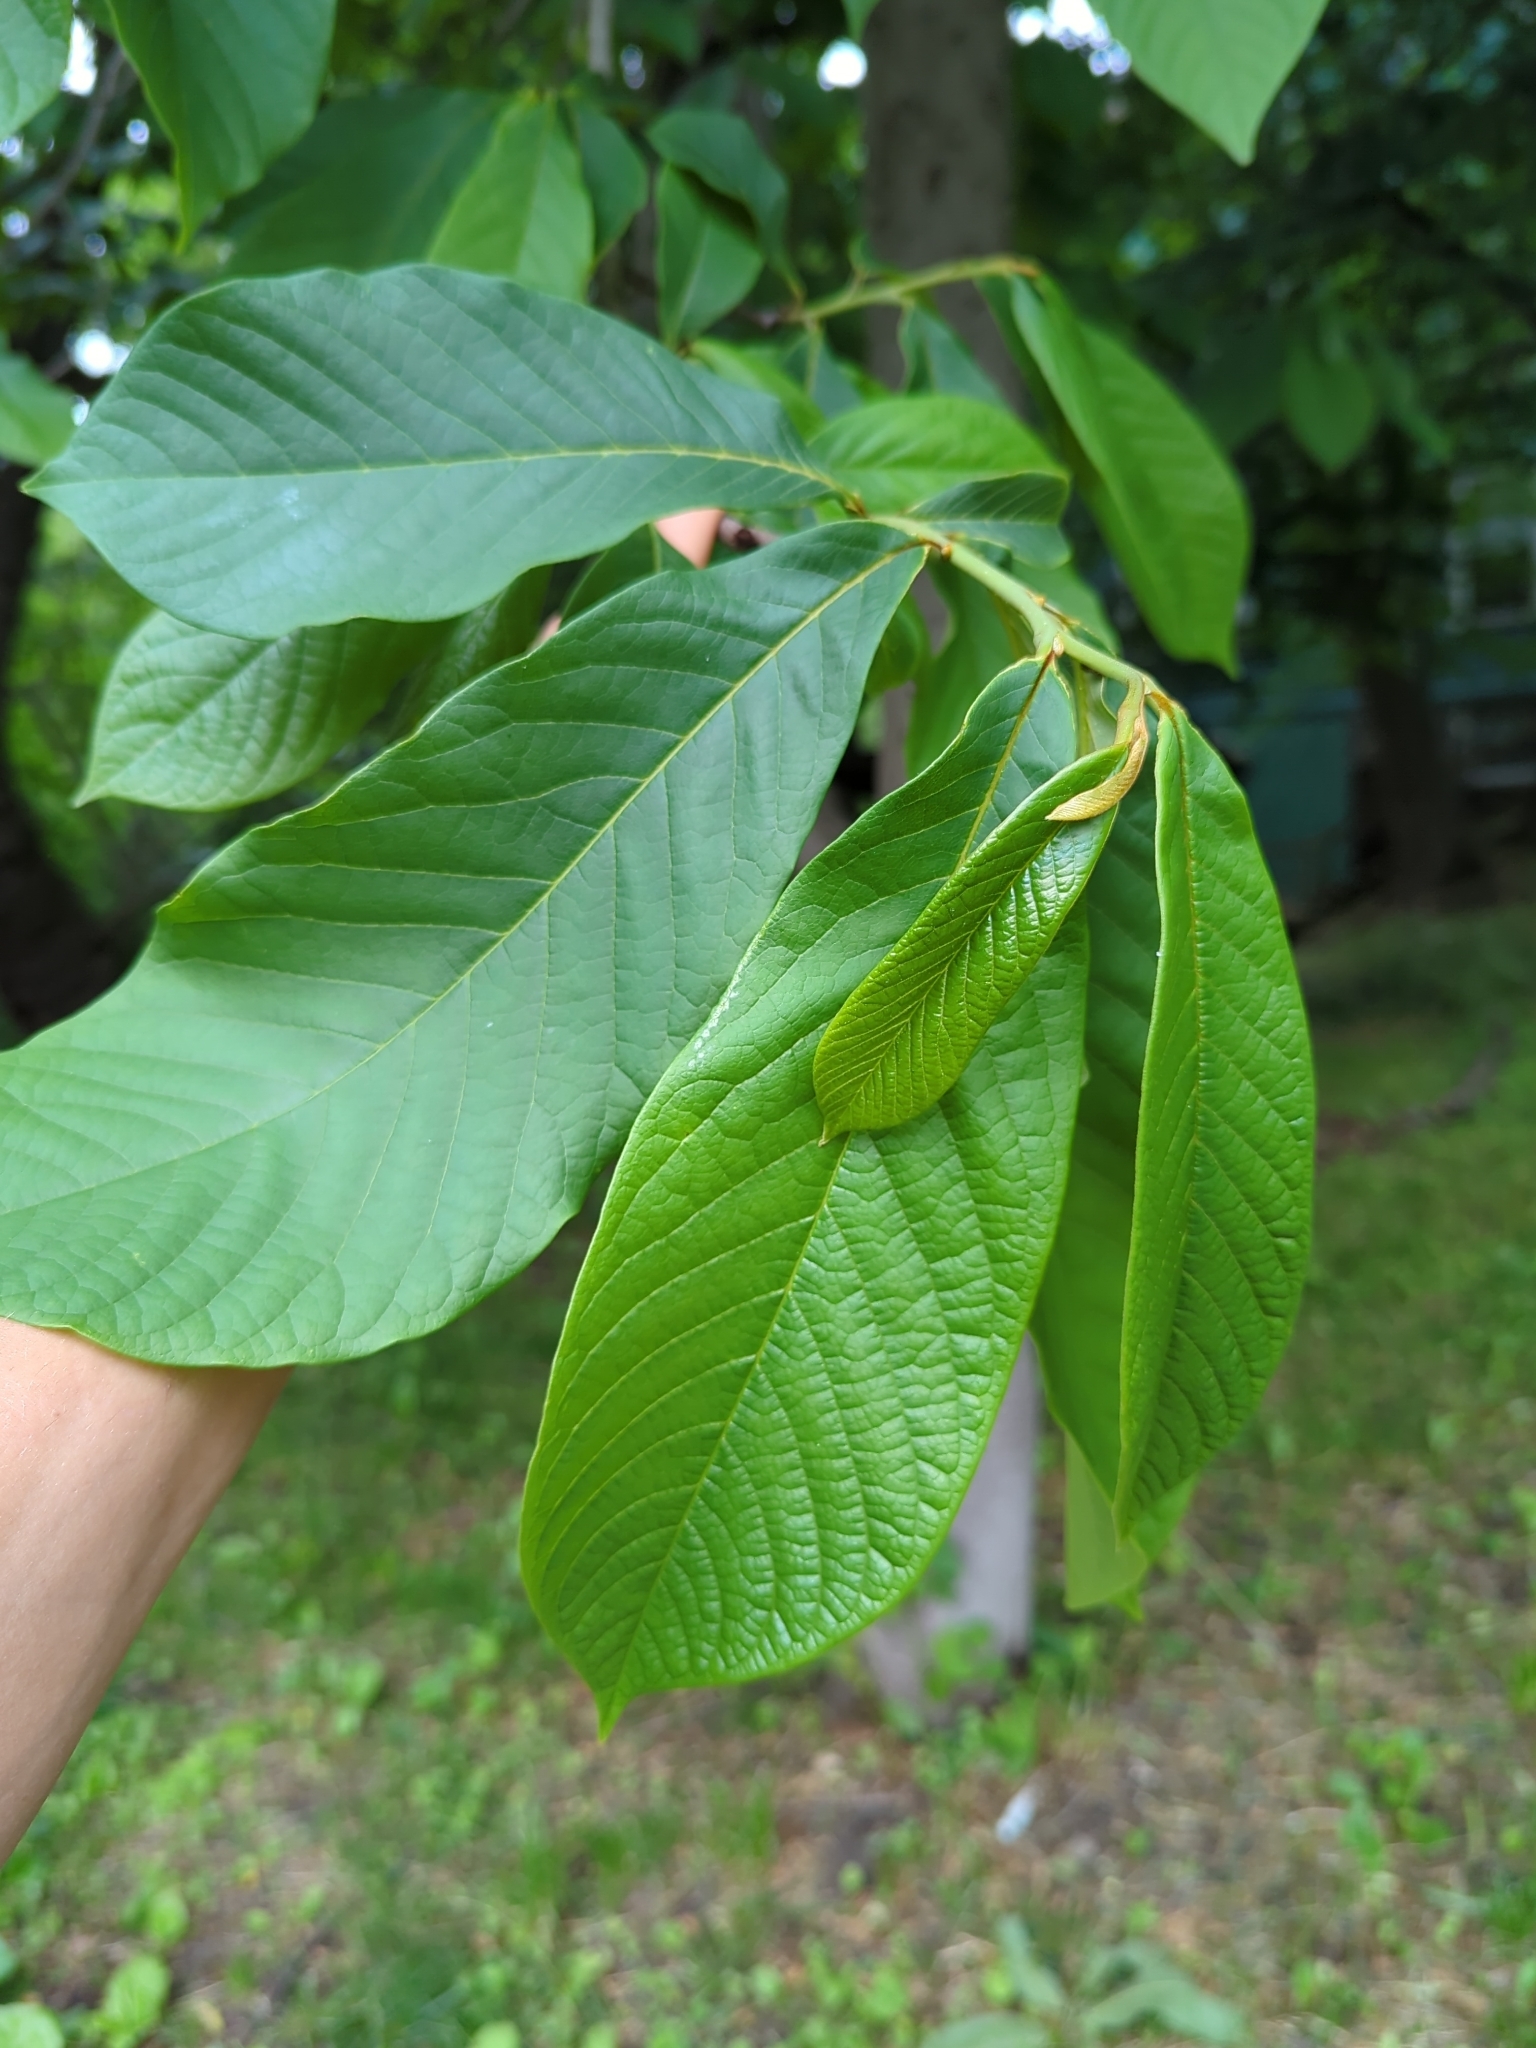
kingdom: Plantae
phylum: Tracheophyta
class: Magnoliopsida
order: Magnoliales
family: Annonaceae
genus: Asimina
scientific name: Asimina triloba
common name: Dog-banana
